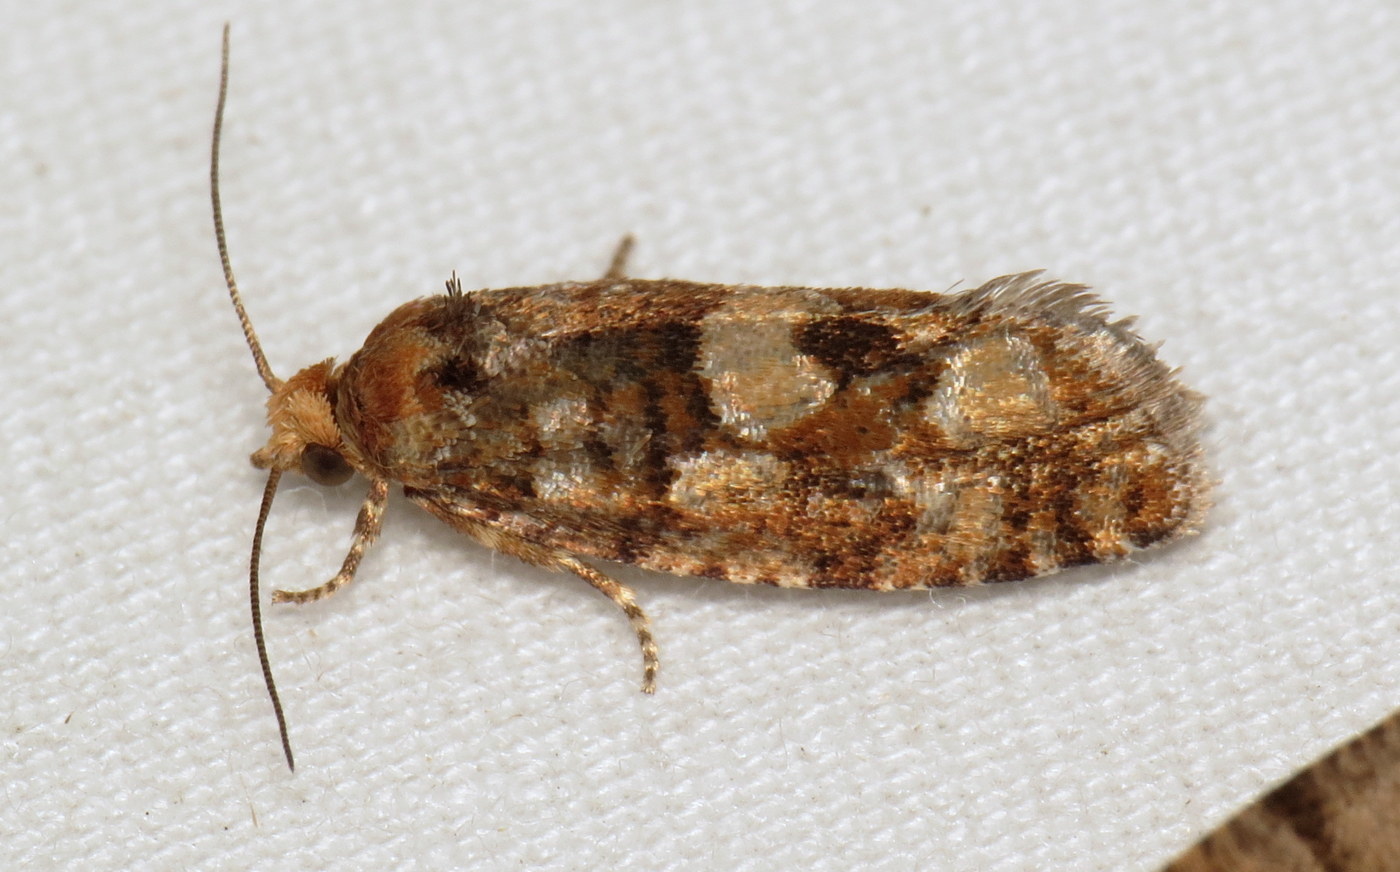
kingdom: Animalia
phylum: Arthropoda
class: Insecta
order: Lepidoptera
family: Tortricidae
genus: Eucopina
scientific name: Eucopina tocullionana
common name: White pinecone borer moth
